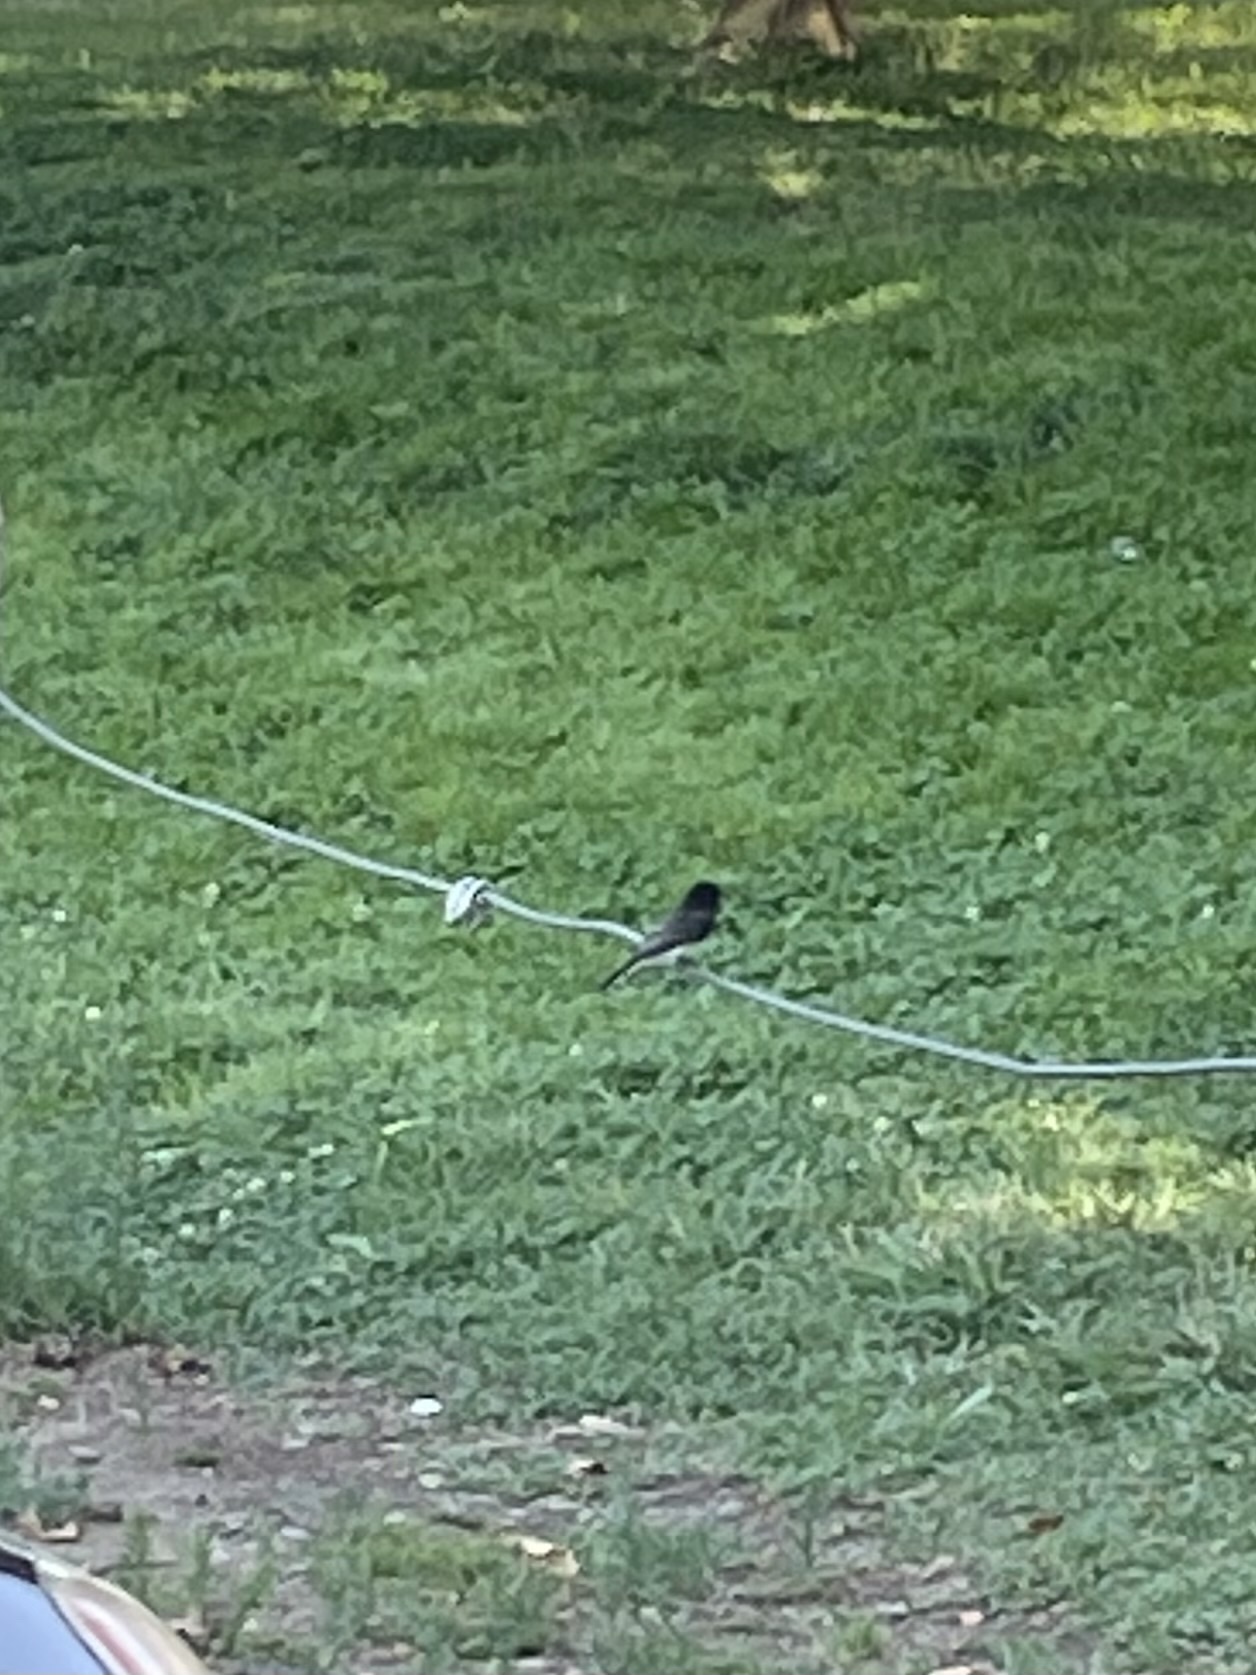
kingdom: Animalia
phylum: Chordata
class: Aves
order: Passeriformes
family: Tyrannidae
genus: Sayornis
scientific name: Sayornis nigricans
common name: Black phoebe
